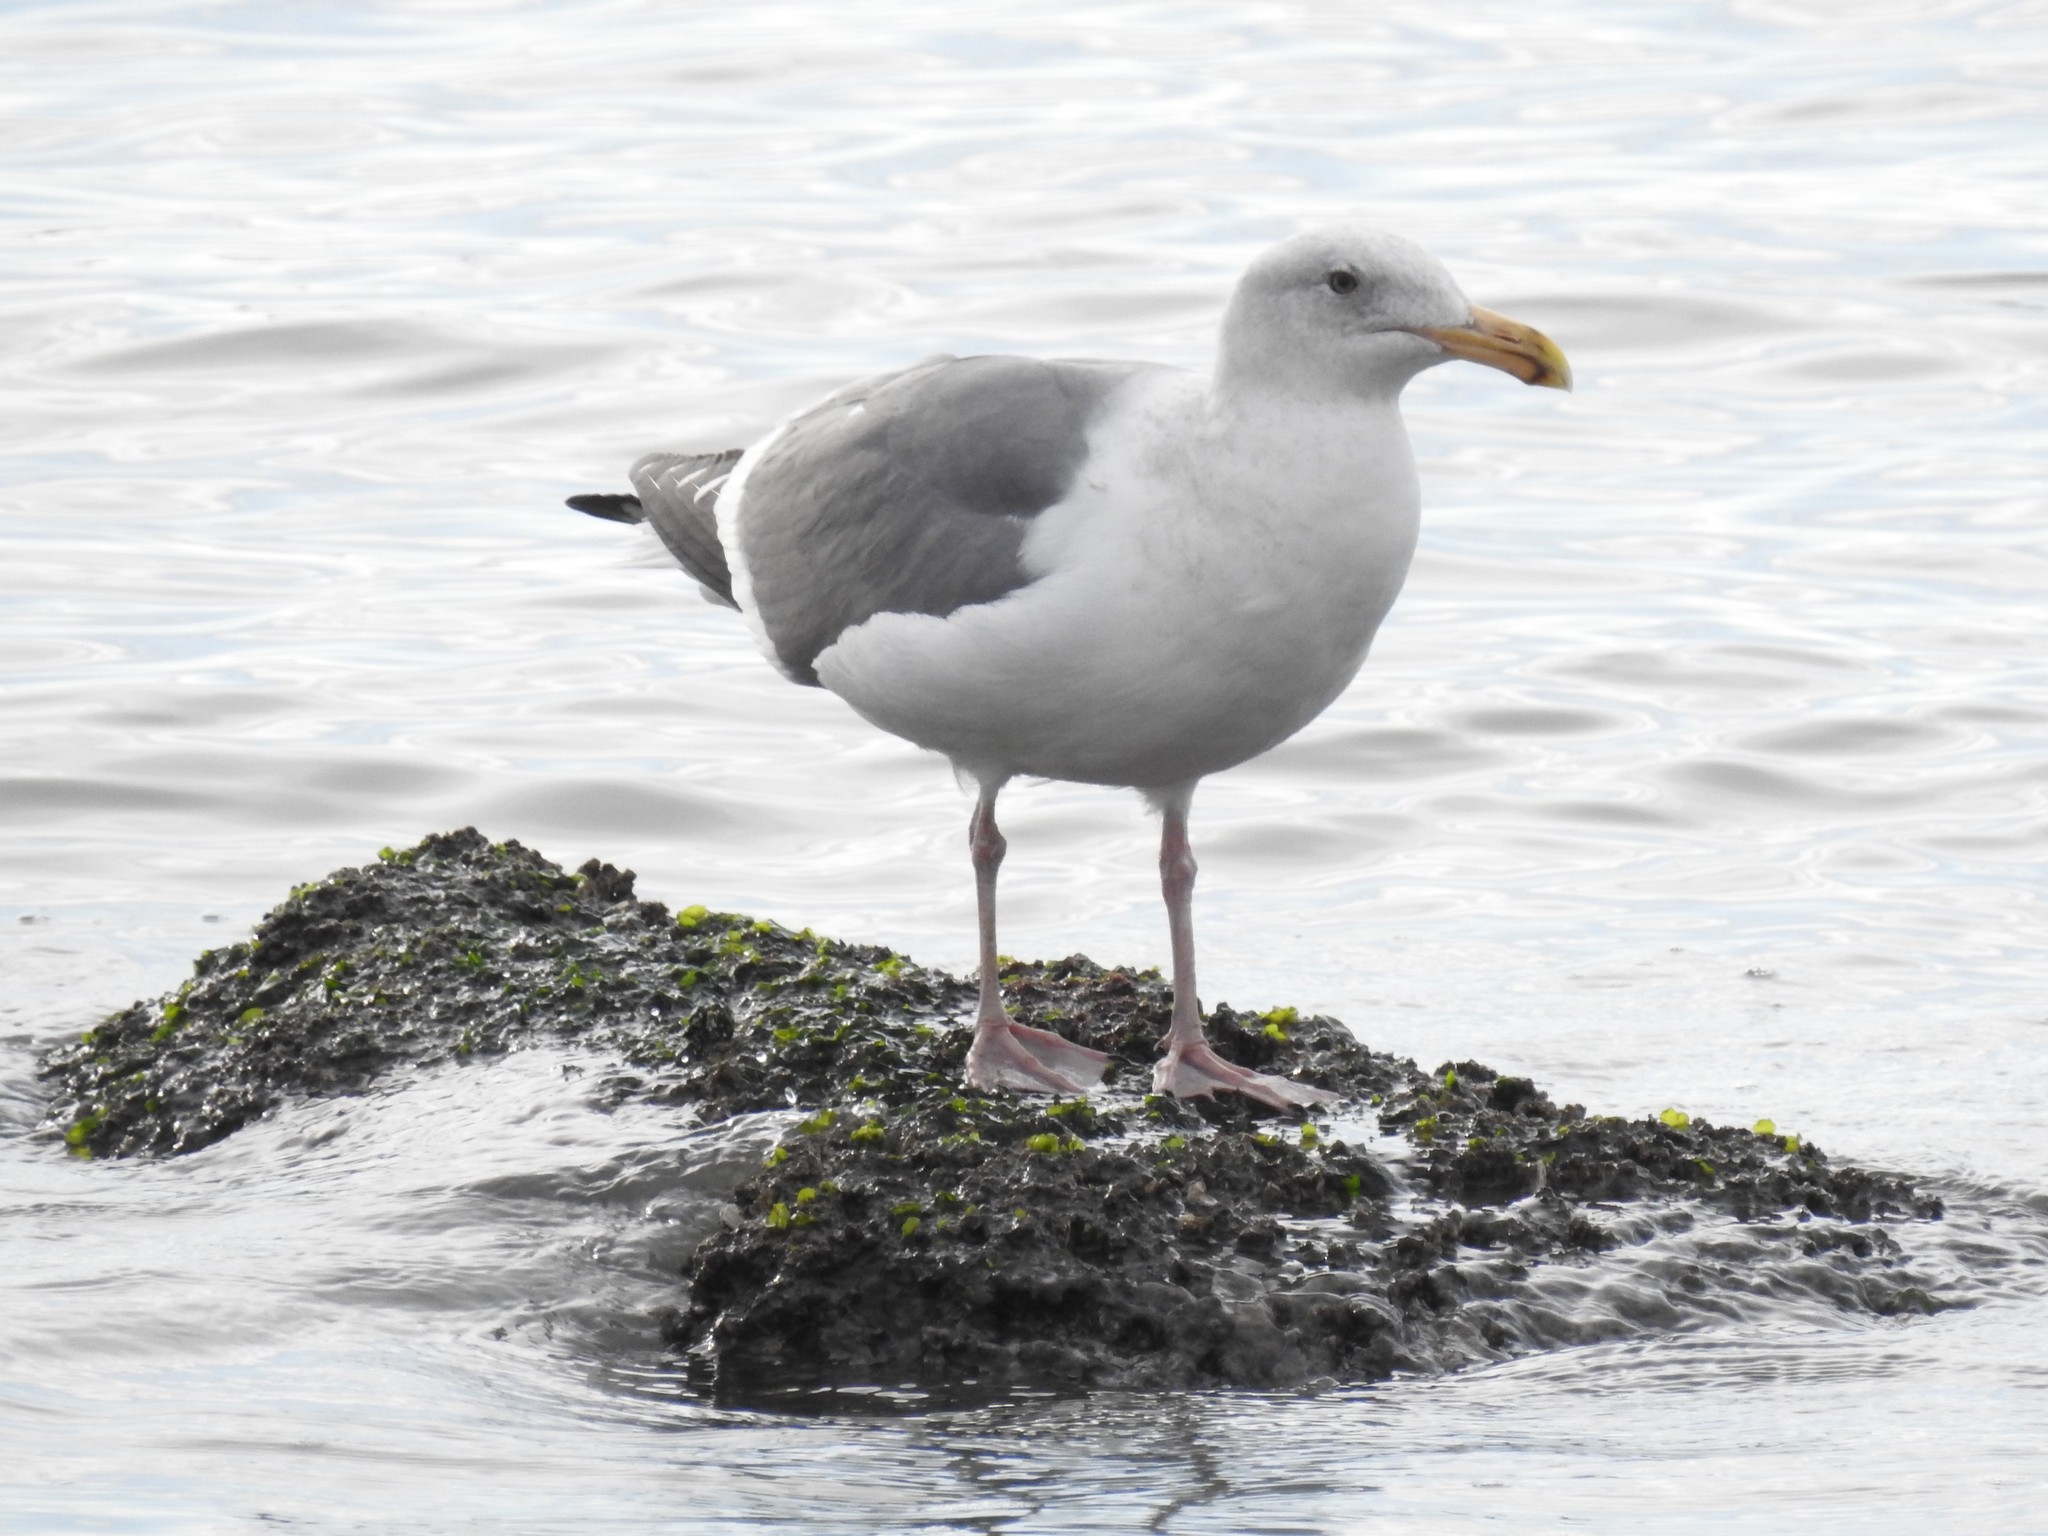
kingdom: Animalia
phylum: Chordata
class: Aves
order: Charadriiformes
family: Laridae
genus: Larus
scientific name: Larus
